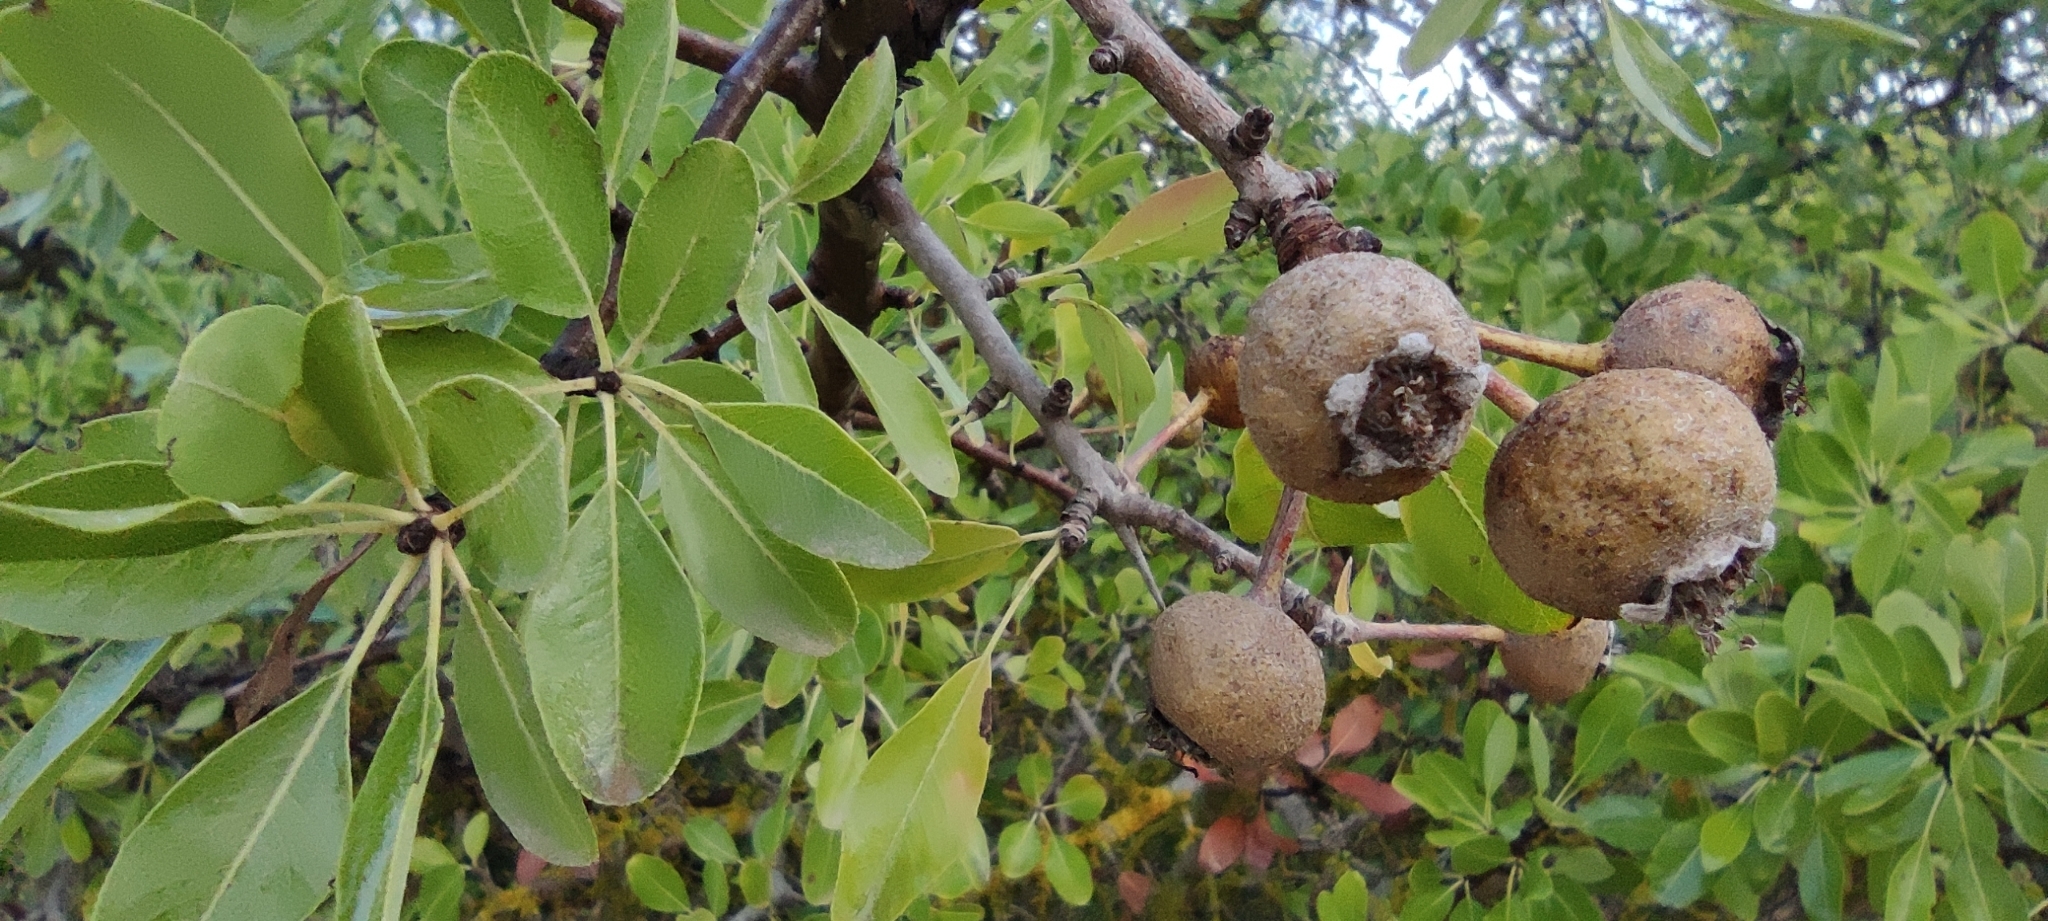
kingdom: Plantae
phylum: Tracheophyta
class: Magnoliopsida
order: Rosales
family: Rosaceae
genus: Pyrus
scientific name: Pyrus spinosa
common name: Almond-leaf pear
